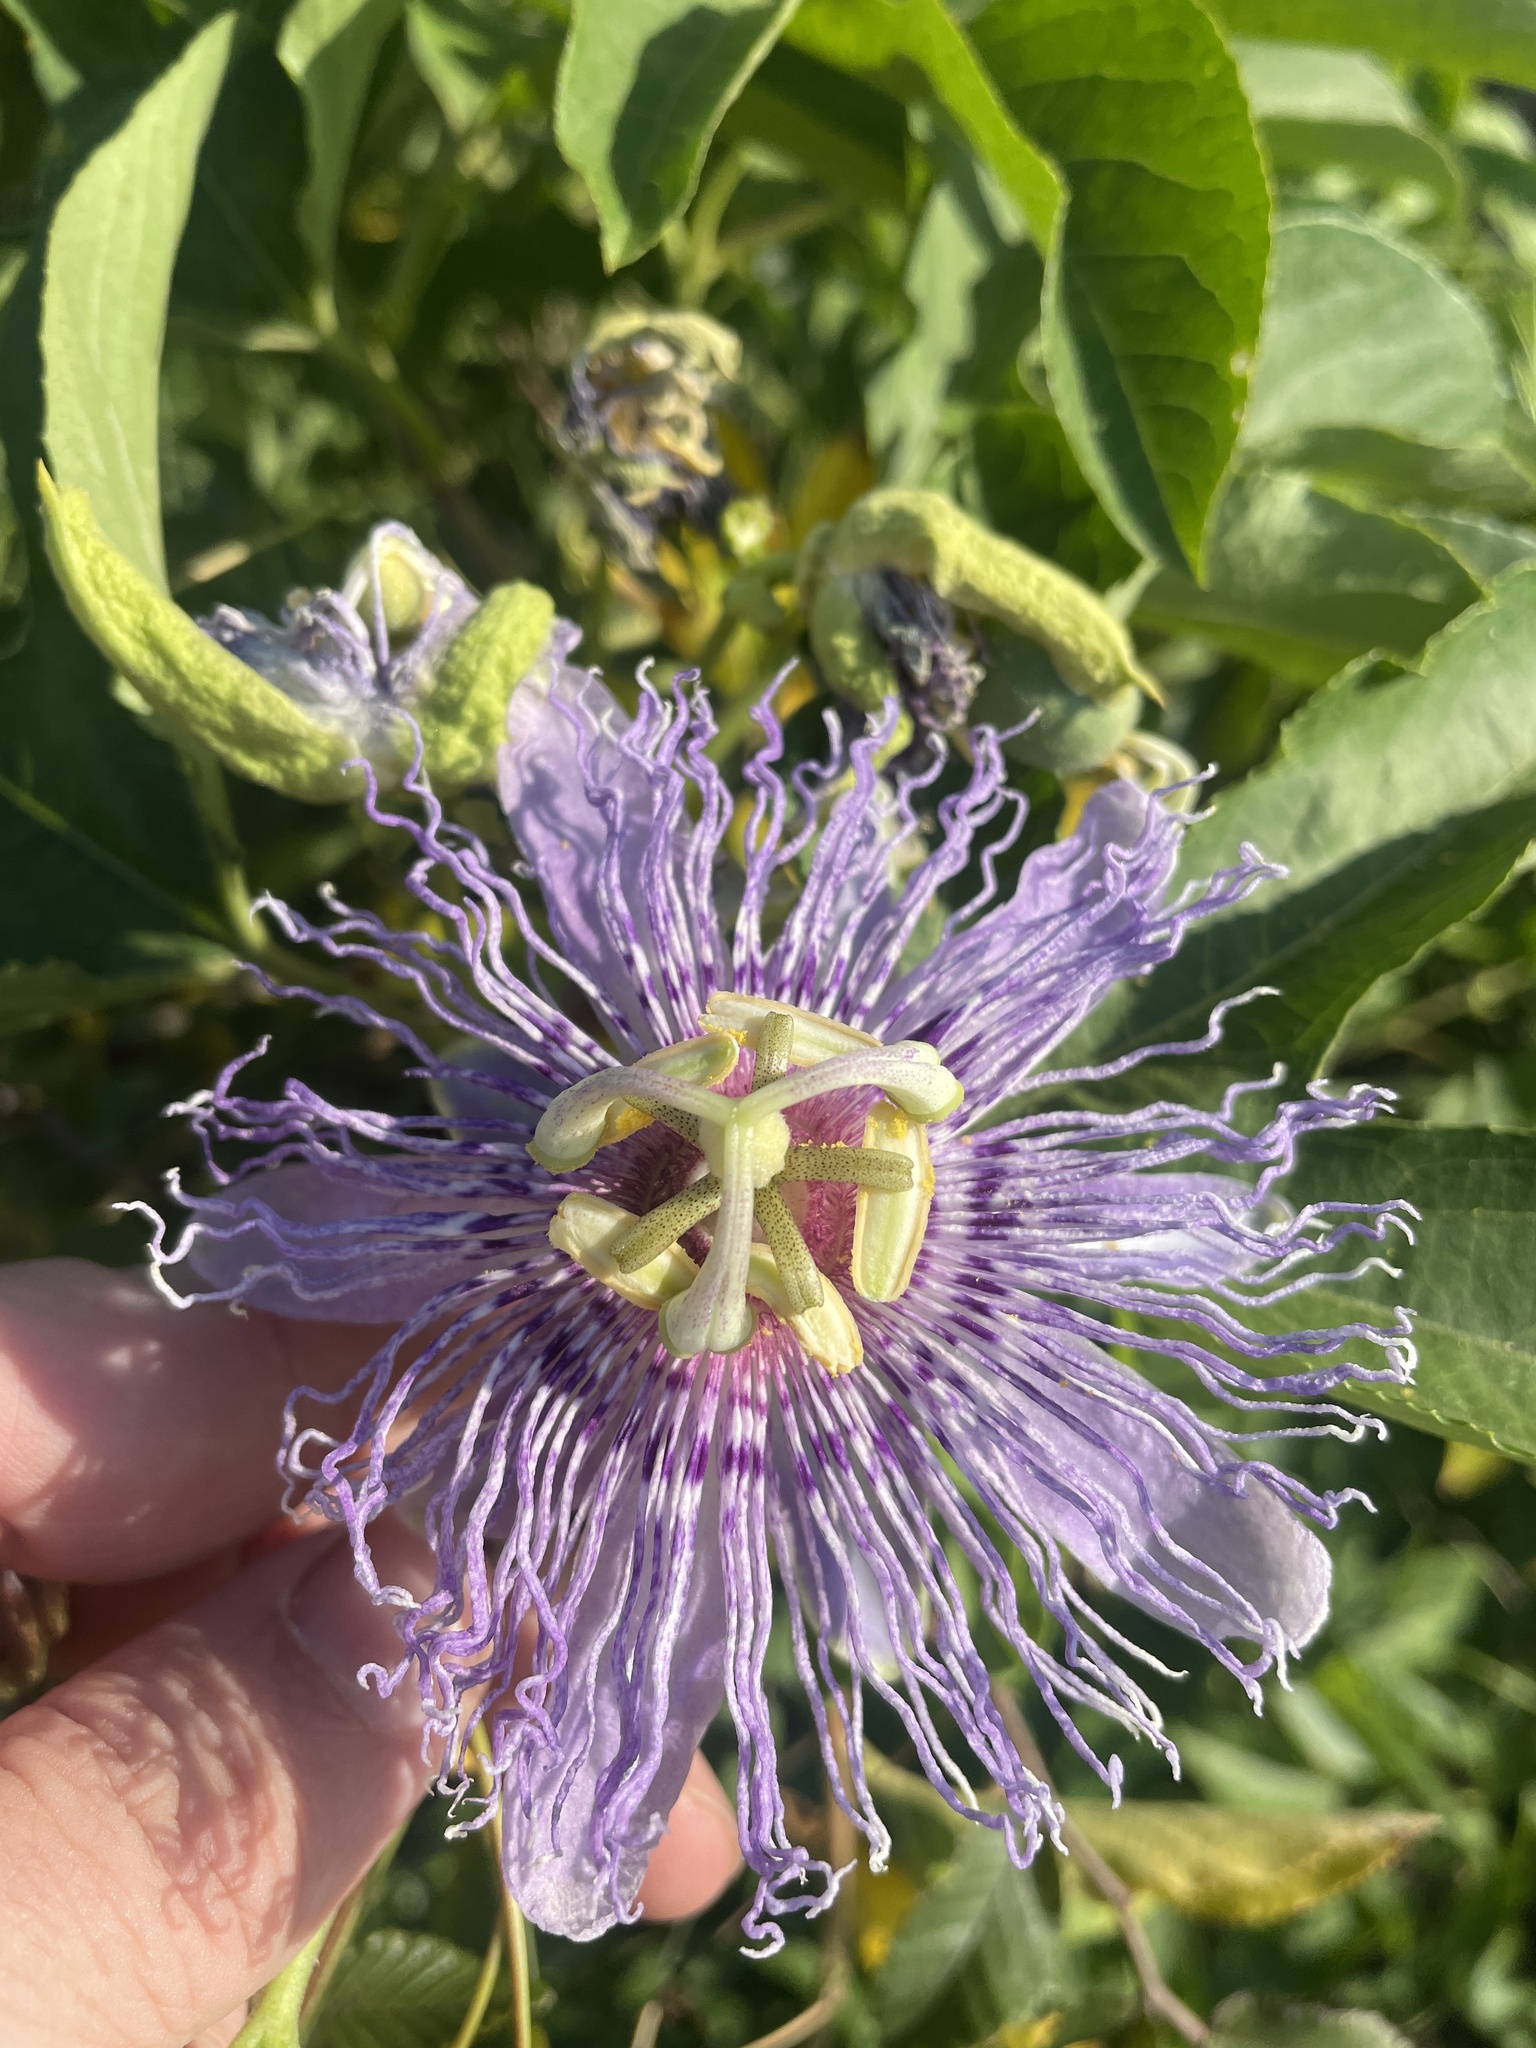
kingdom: Plantae
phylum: Tracheophyta
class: Magnoliopsida
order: Malpighiales
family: Passifloraceae
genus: Passiflora
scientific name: Passiflora incarnata
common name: Apricot-vine
